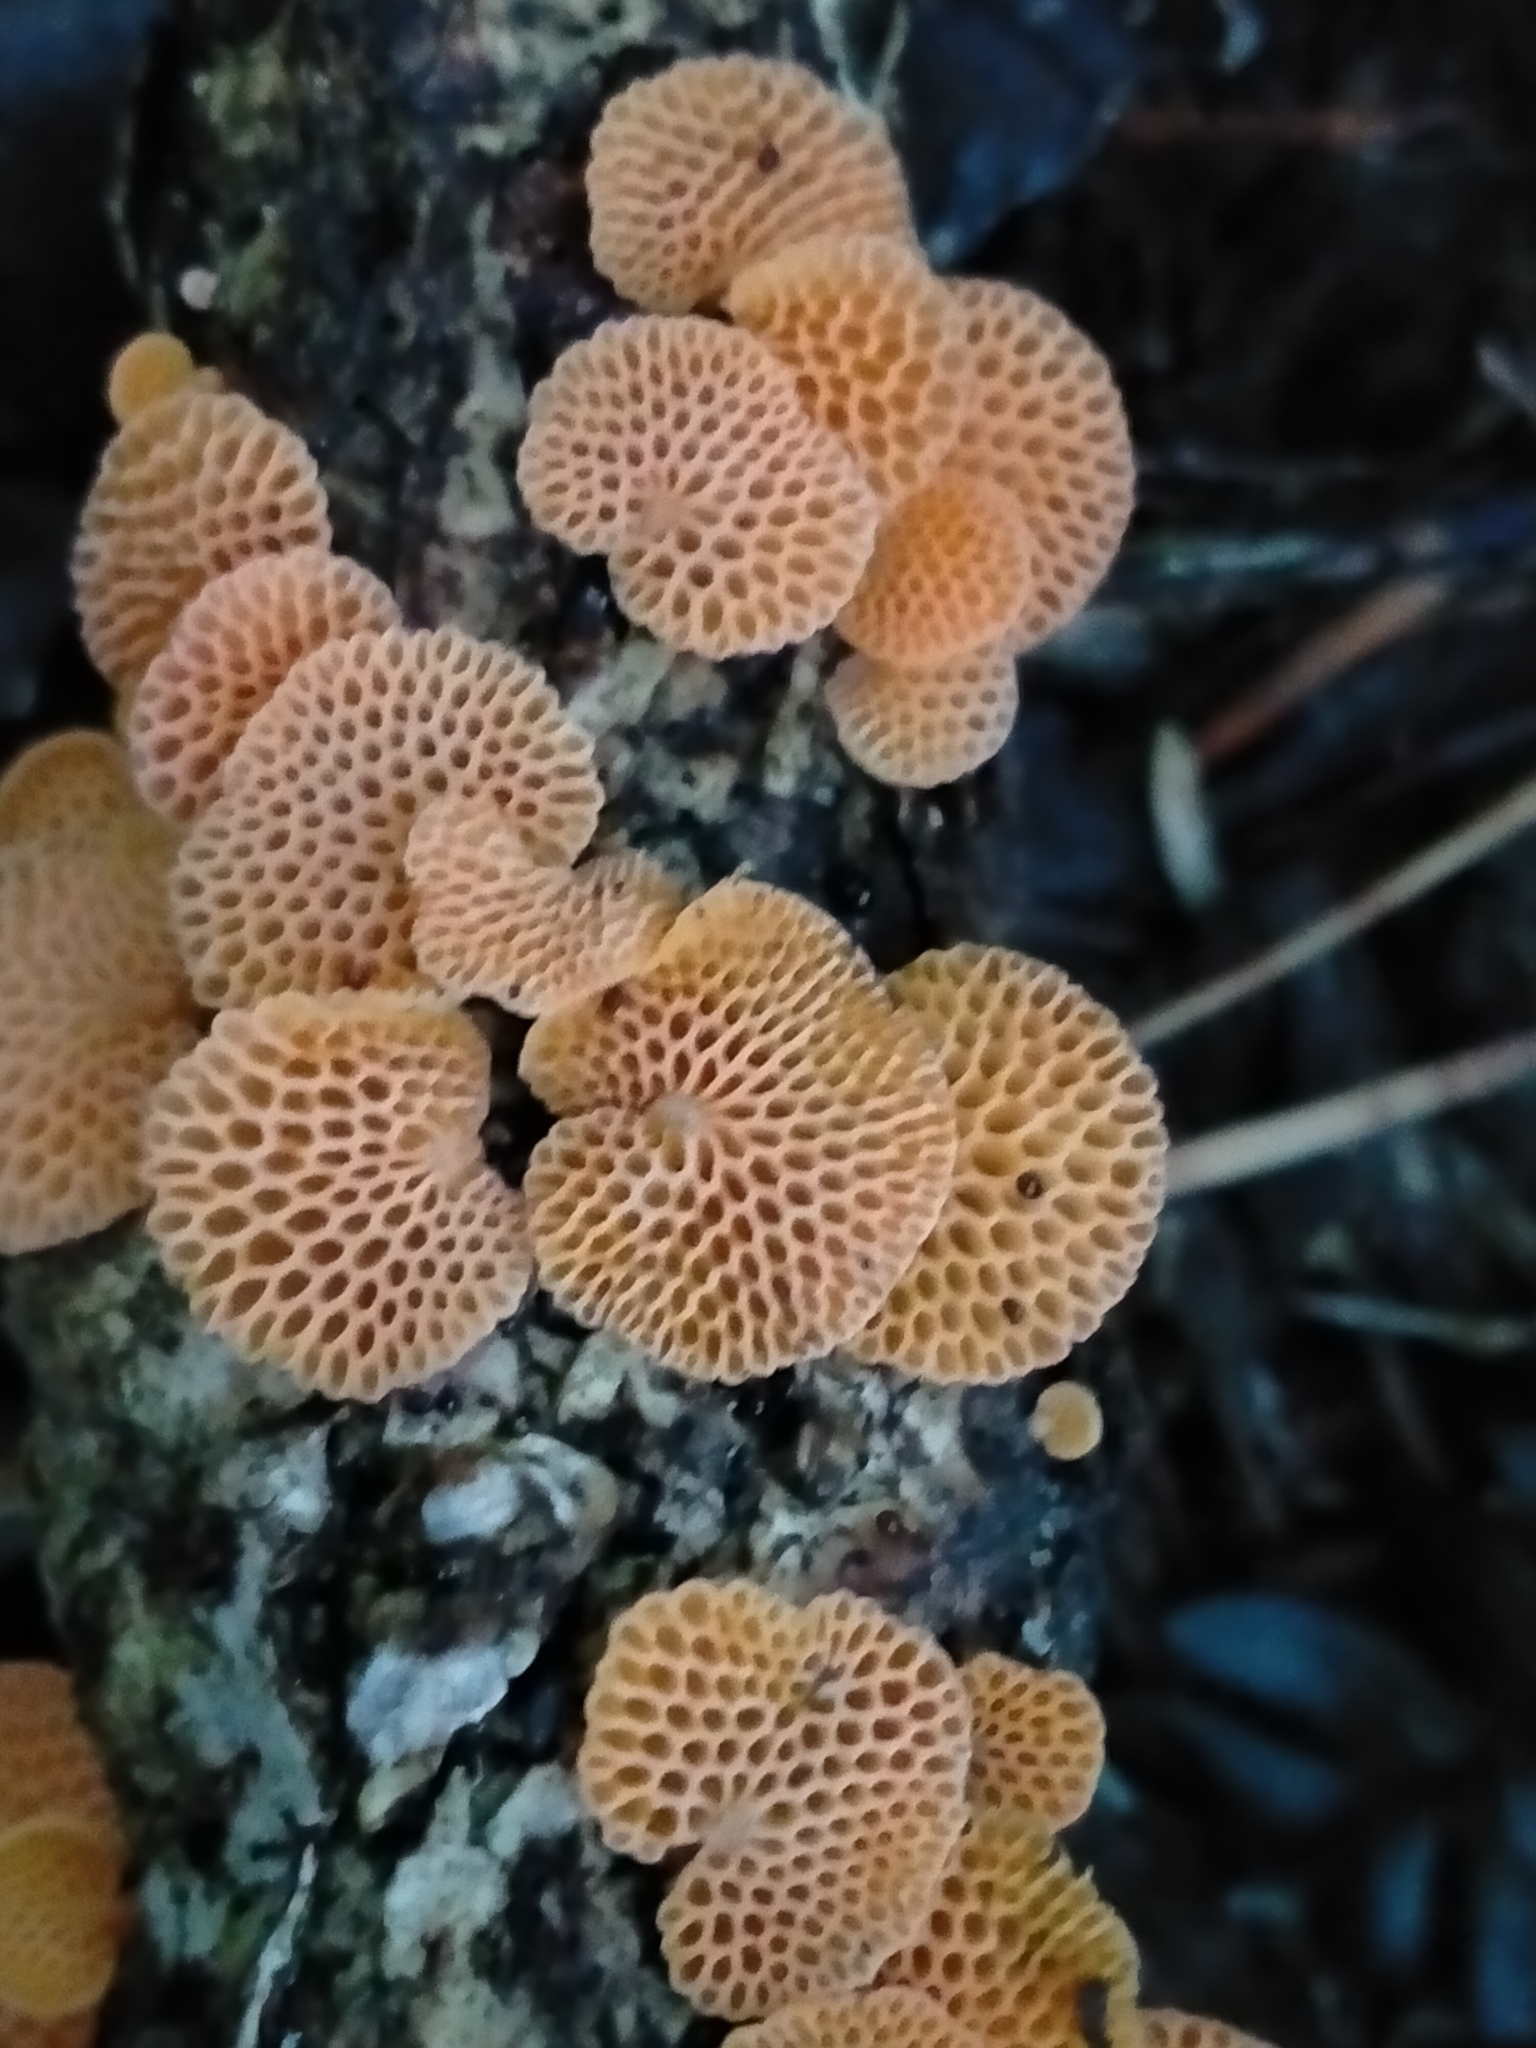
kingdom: Fungi
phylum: Basidiomycota
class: Agaricomycetes
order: Agaricales
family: Mycenaceae
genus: Favolaschia
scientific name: Favolaschia claudopus
